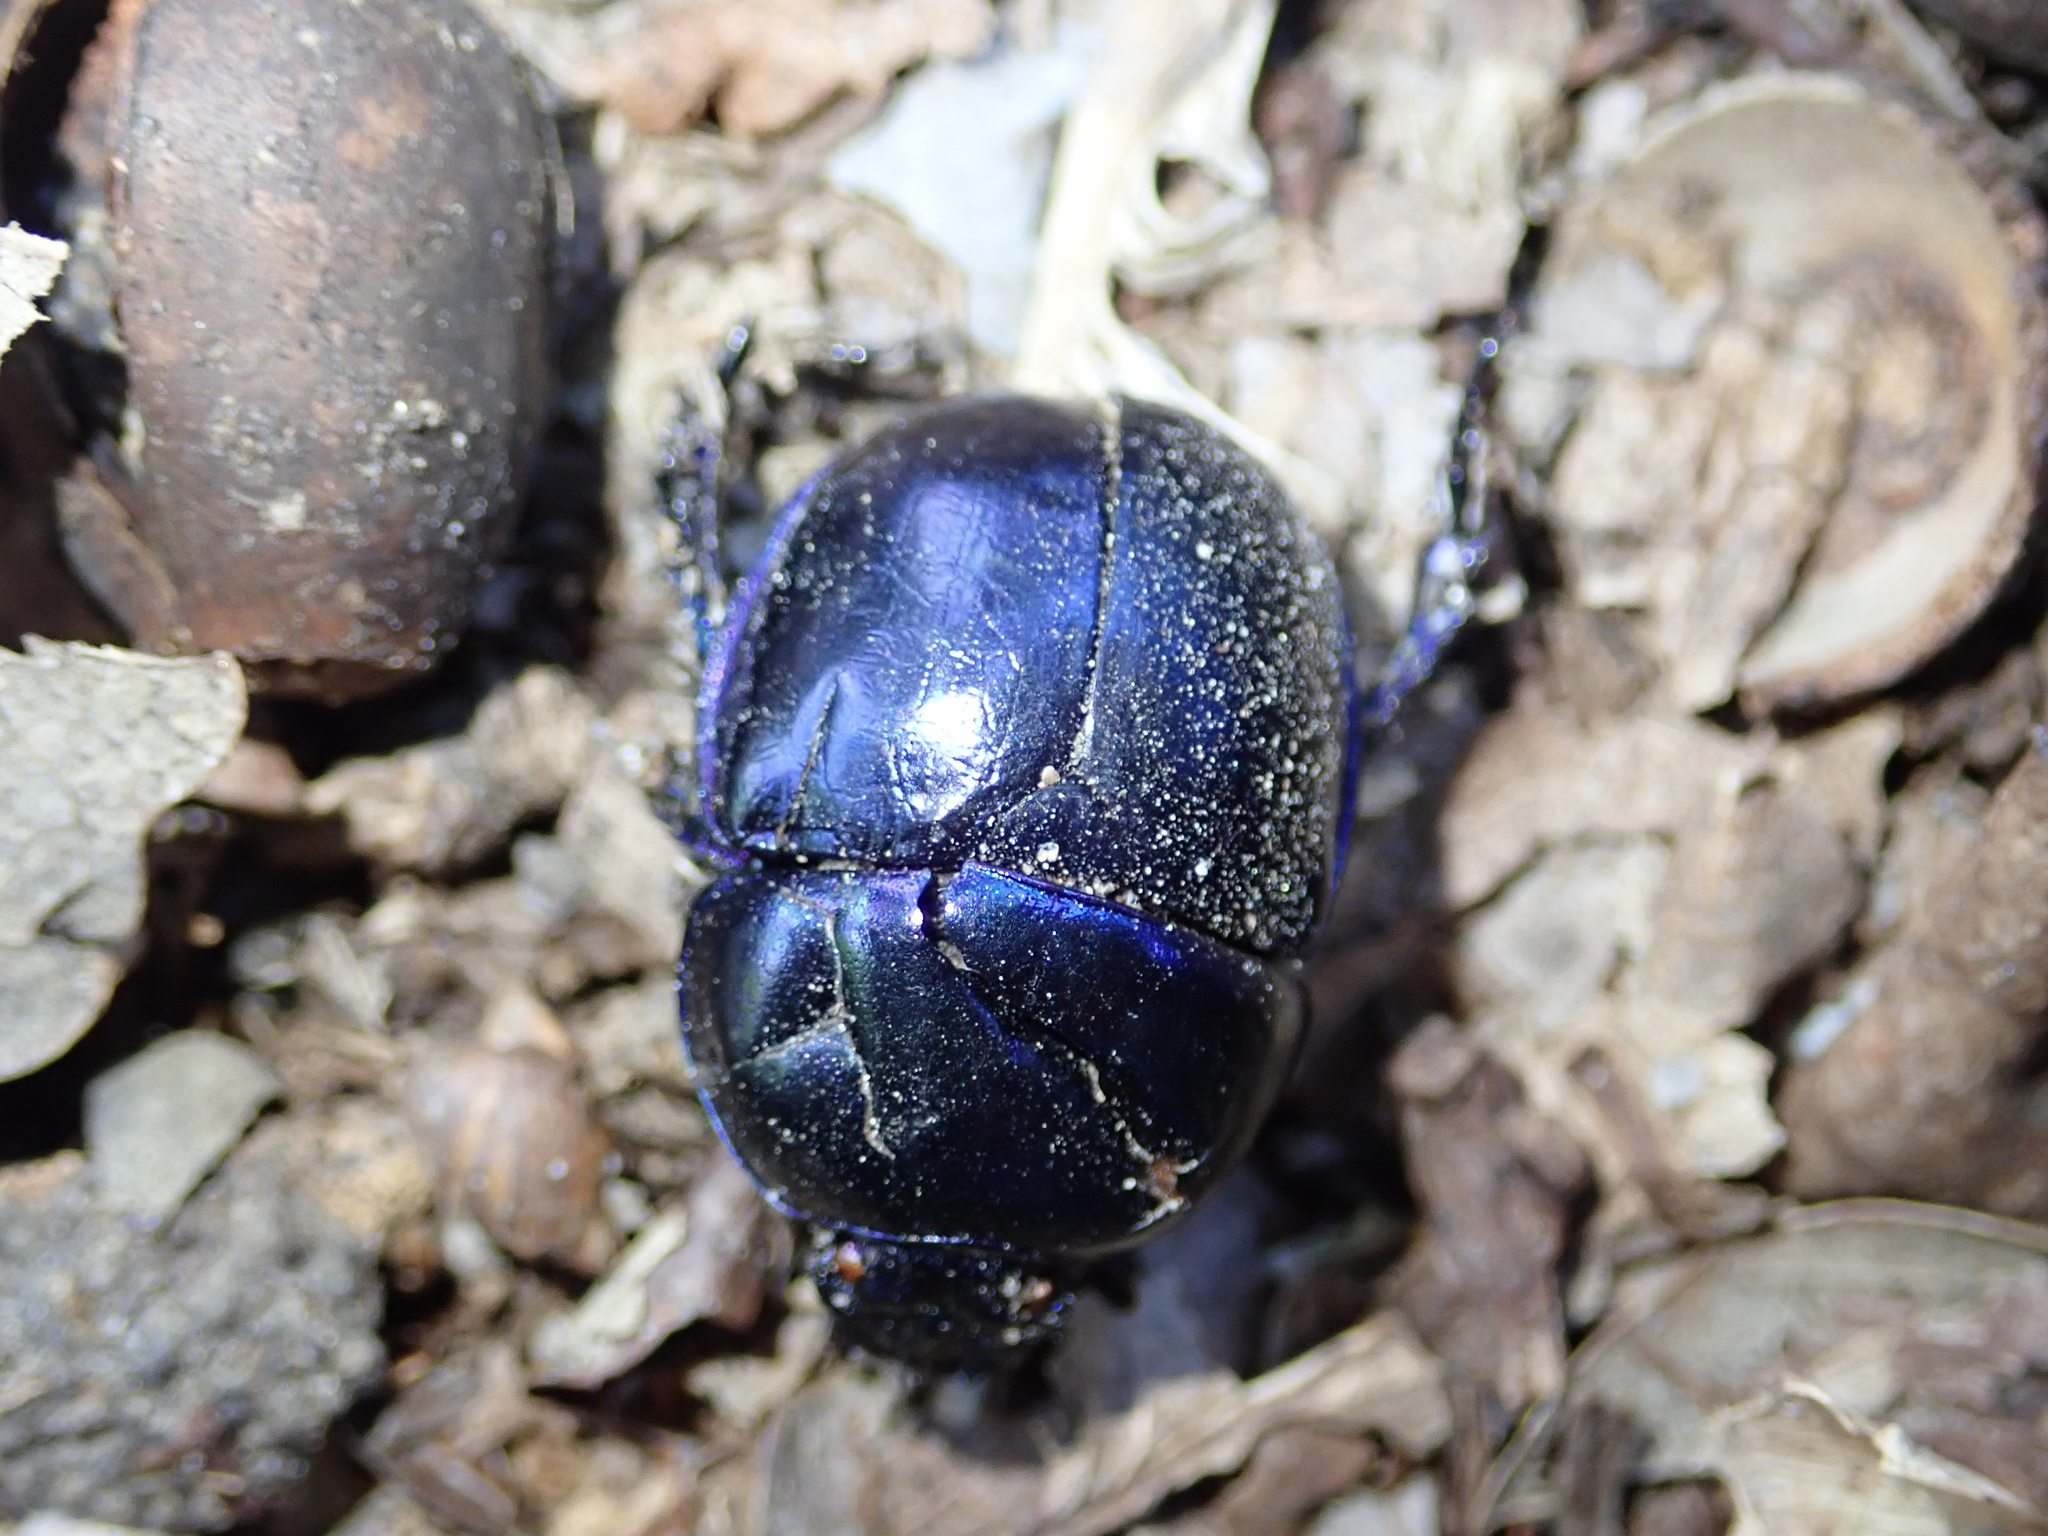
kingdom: Animalia
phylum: Arthropoda
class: Insecta
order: Coleoptera
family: Geotrupidae
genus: Trypocopris
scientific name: Trypocopris vernalis
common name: Spring dumbledor
